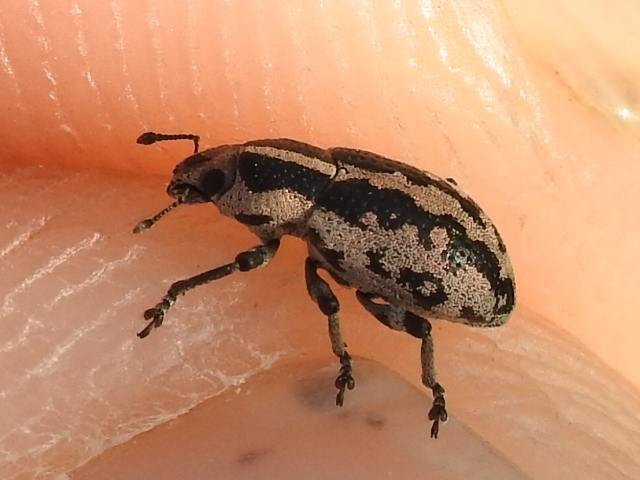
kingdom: Animalia
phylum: Arthropoda
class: Insecta
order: Coleoptera
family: Curculionidae
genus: Eudiagogus
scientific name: Eudiagogus rosenschoeldi
